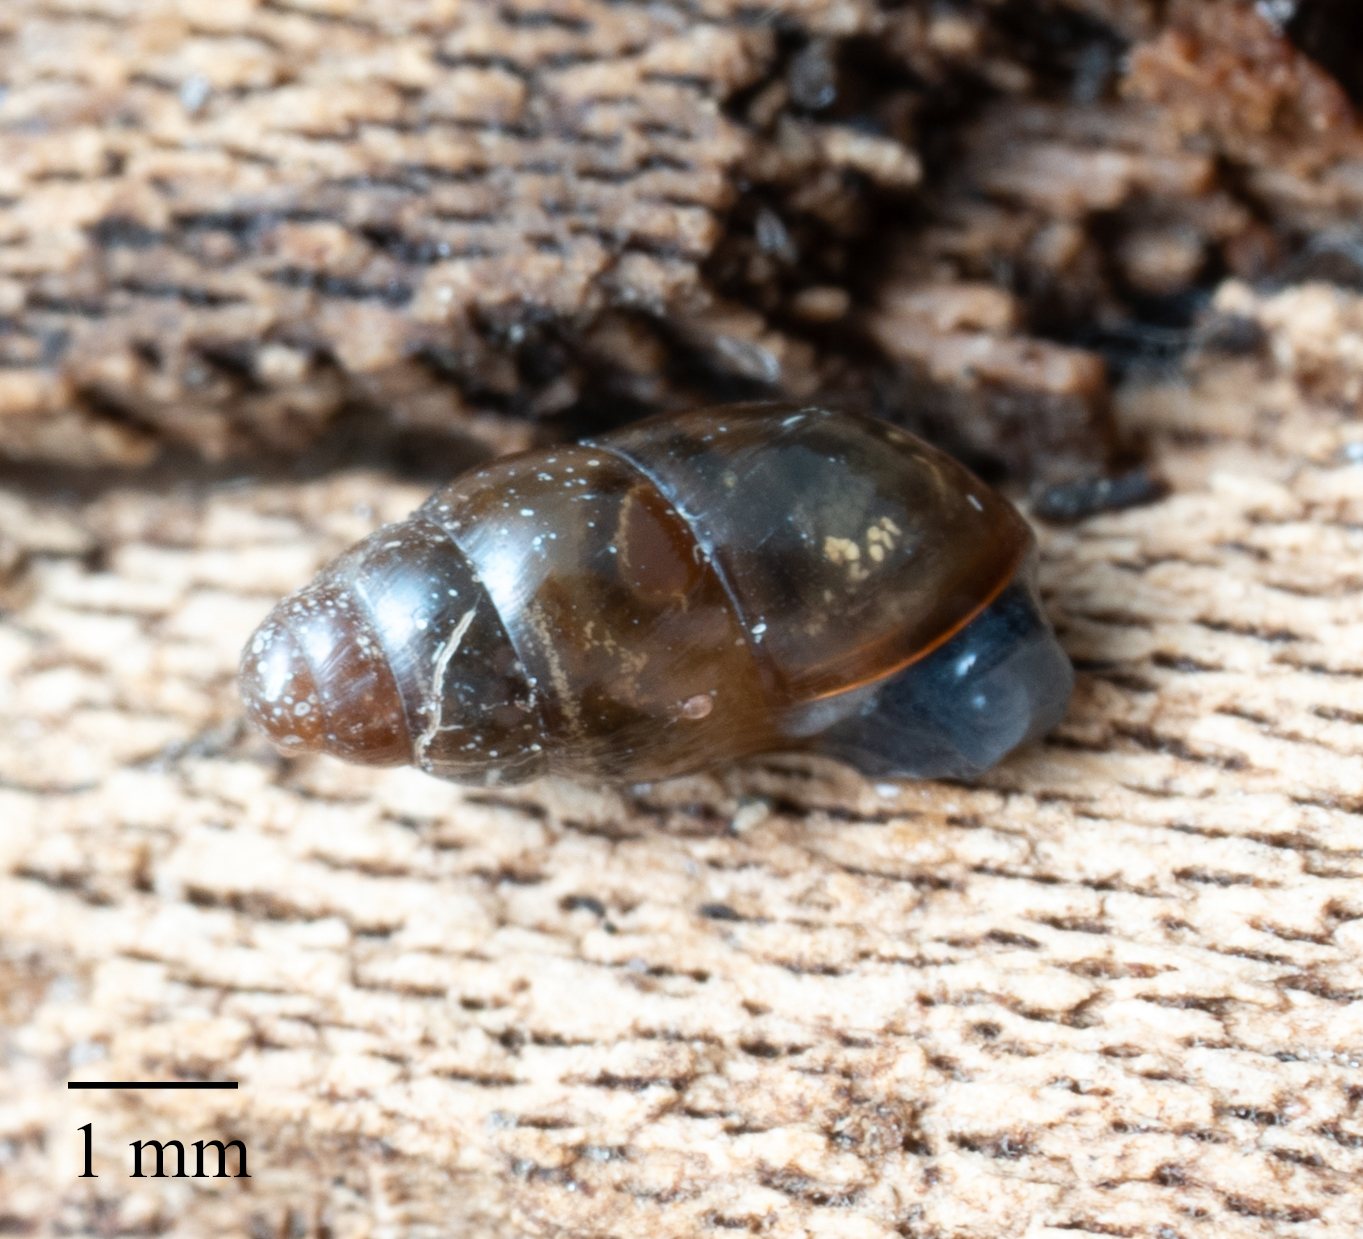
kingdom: Animalia
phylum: Mollusca
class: Gastropoda
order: Stylommatophora
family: Cochlicopidae
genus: Cochlicopa
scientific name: Cochlicopa lubrica
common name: Glossy pillar snail
